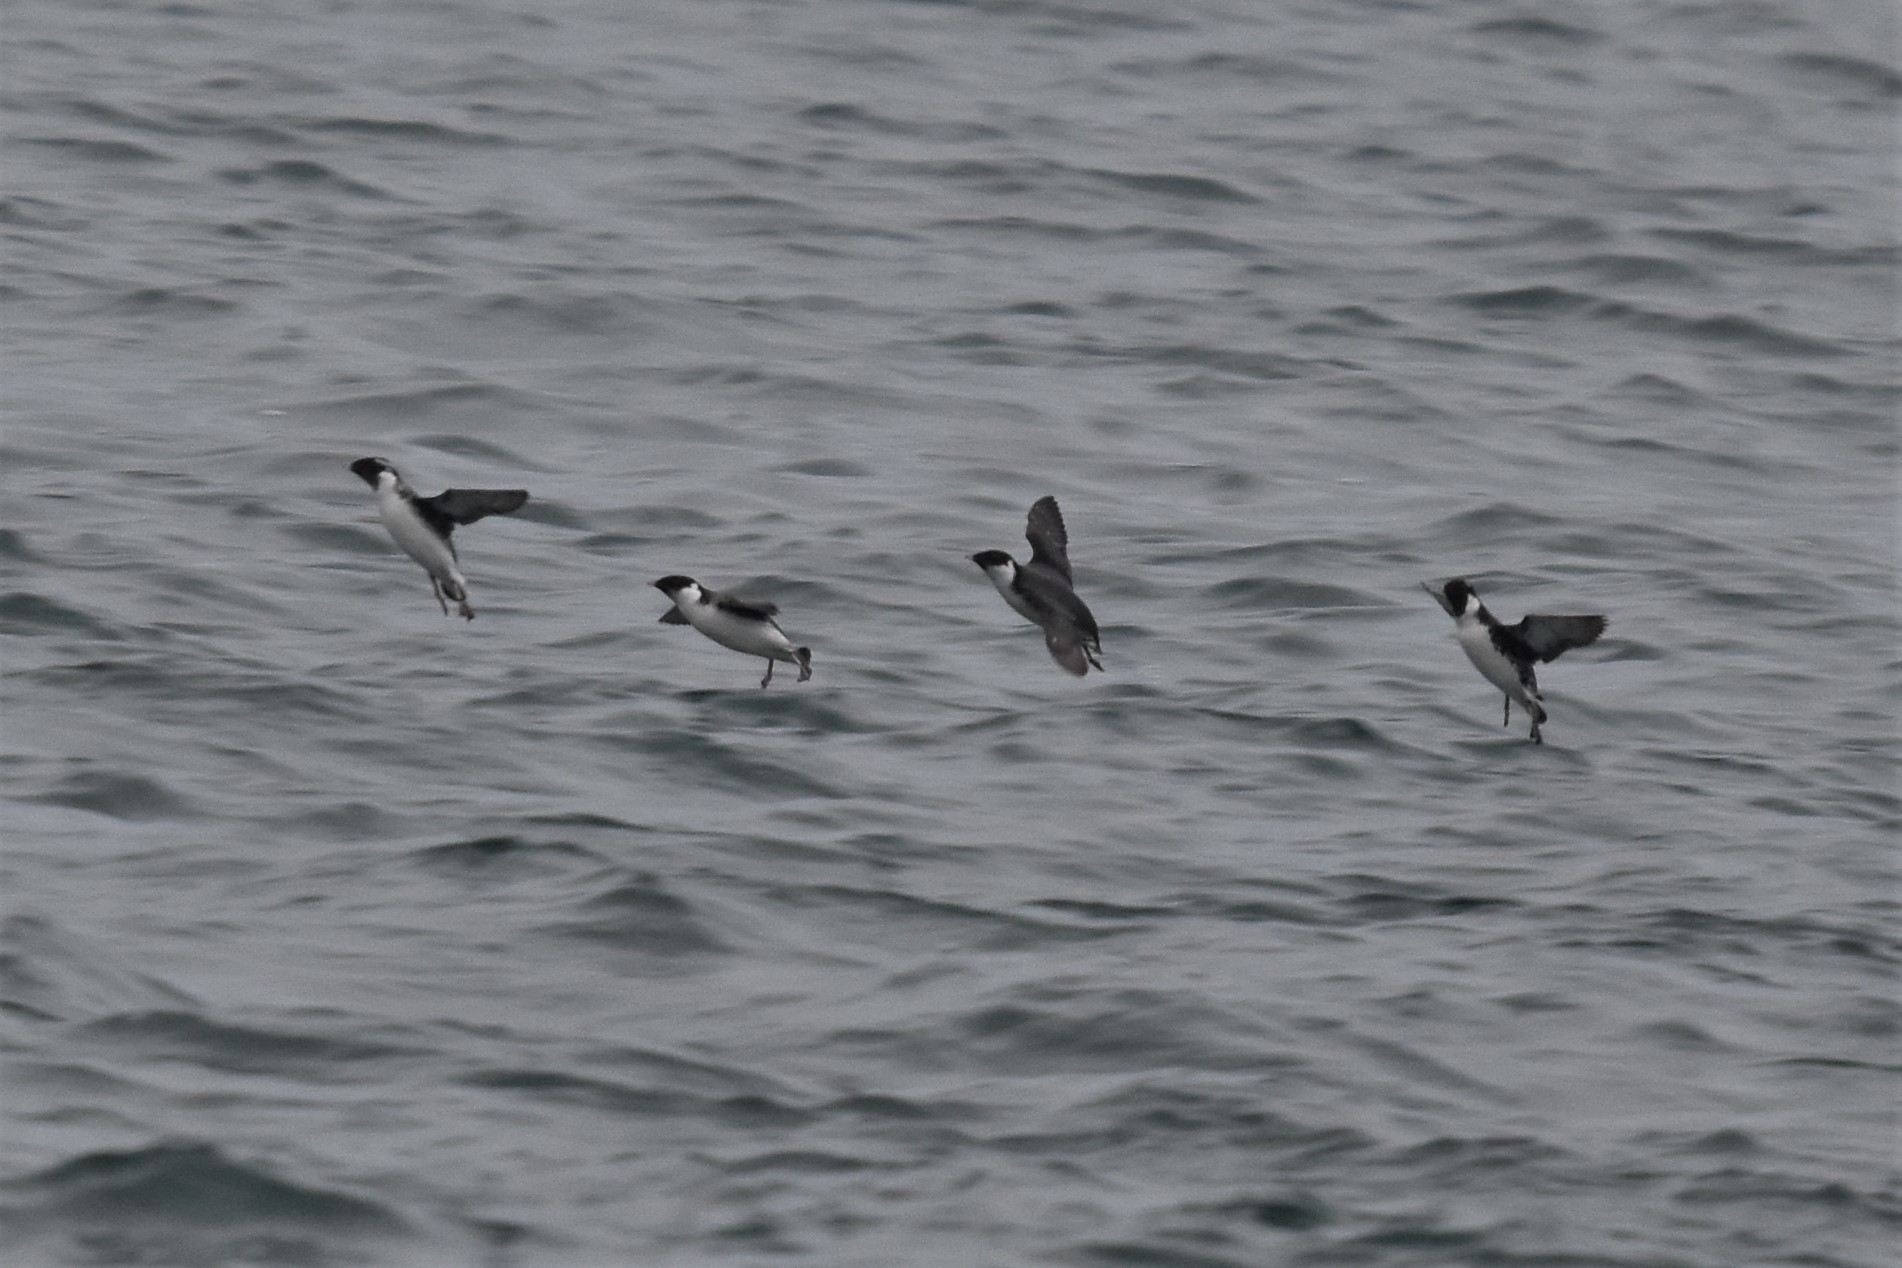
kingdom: Animalia
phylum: Chordata
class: Aves
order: Charadriiformes
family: Alcidae
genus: Synthliboramphus
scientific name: Synthliboramphus antiquus
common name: Ancient murrelet
